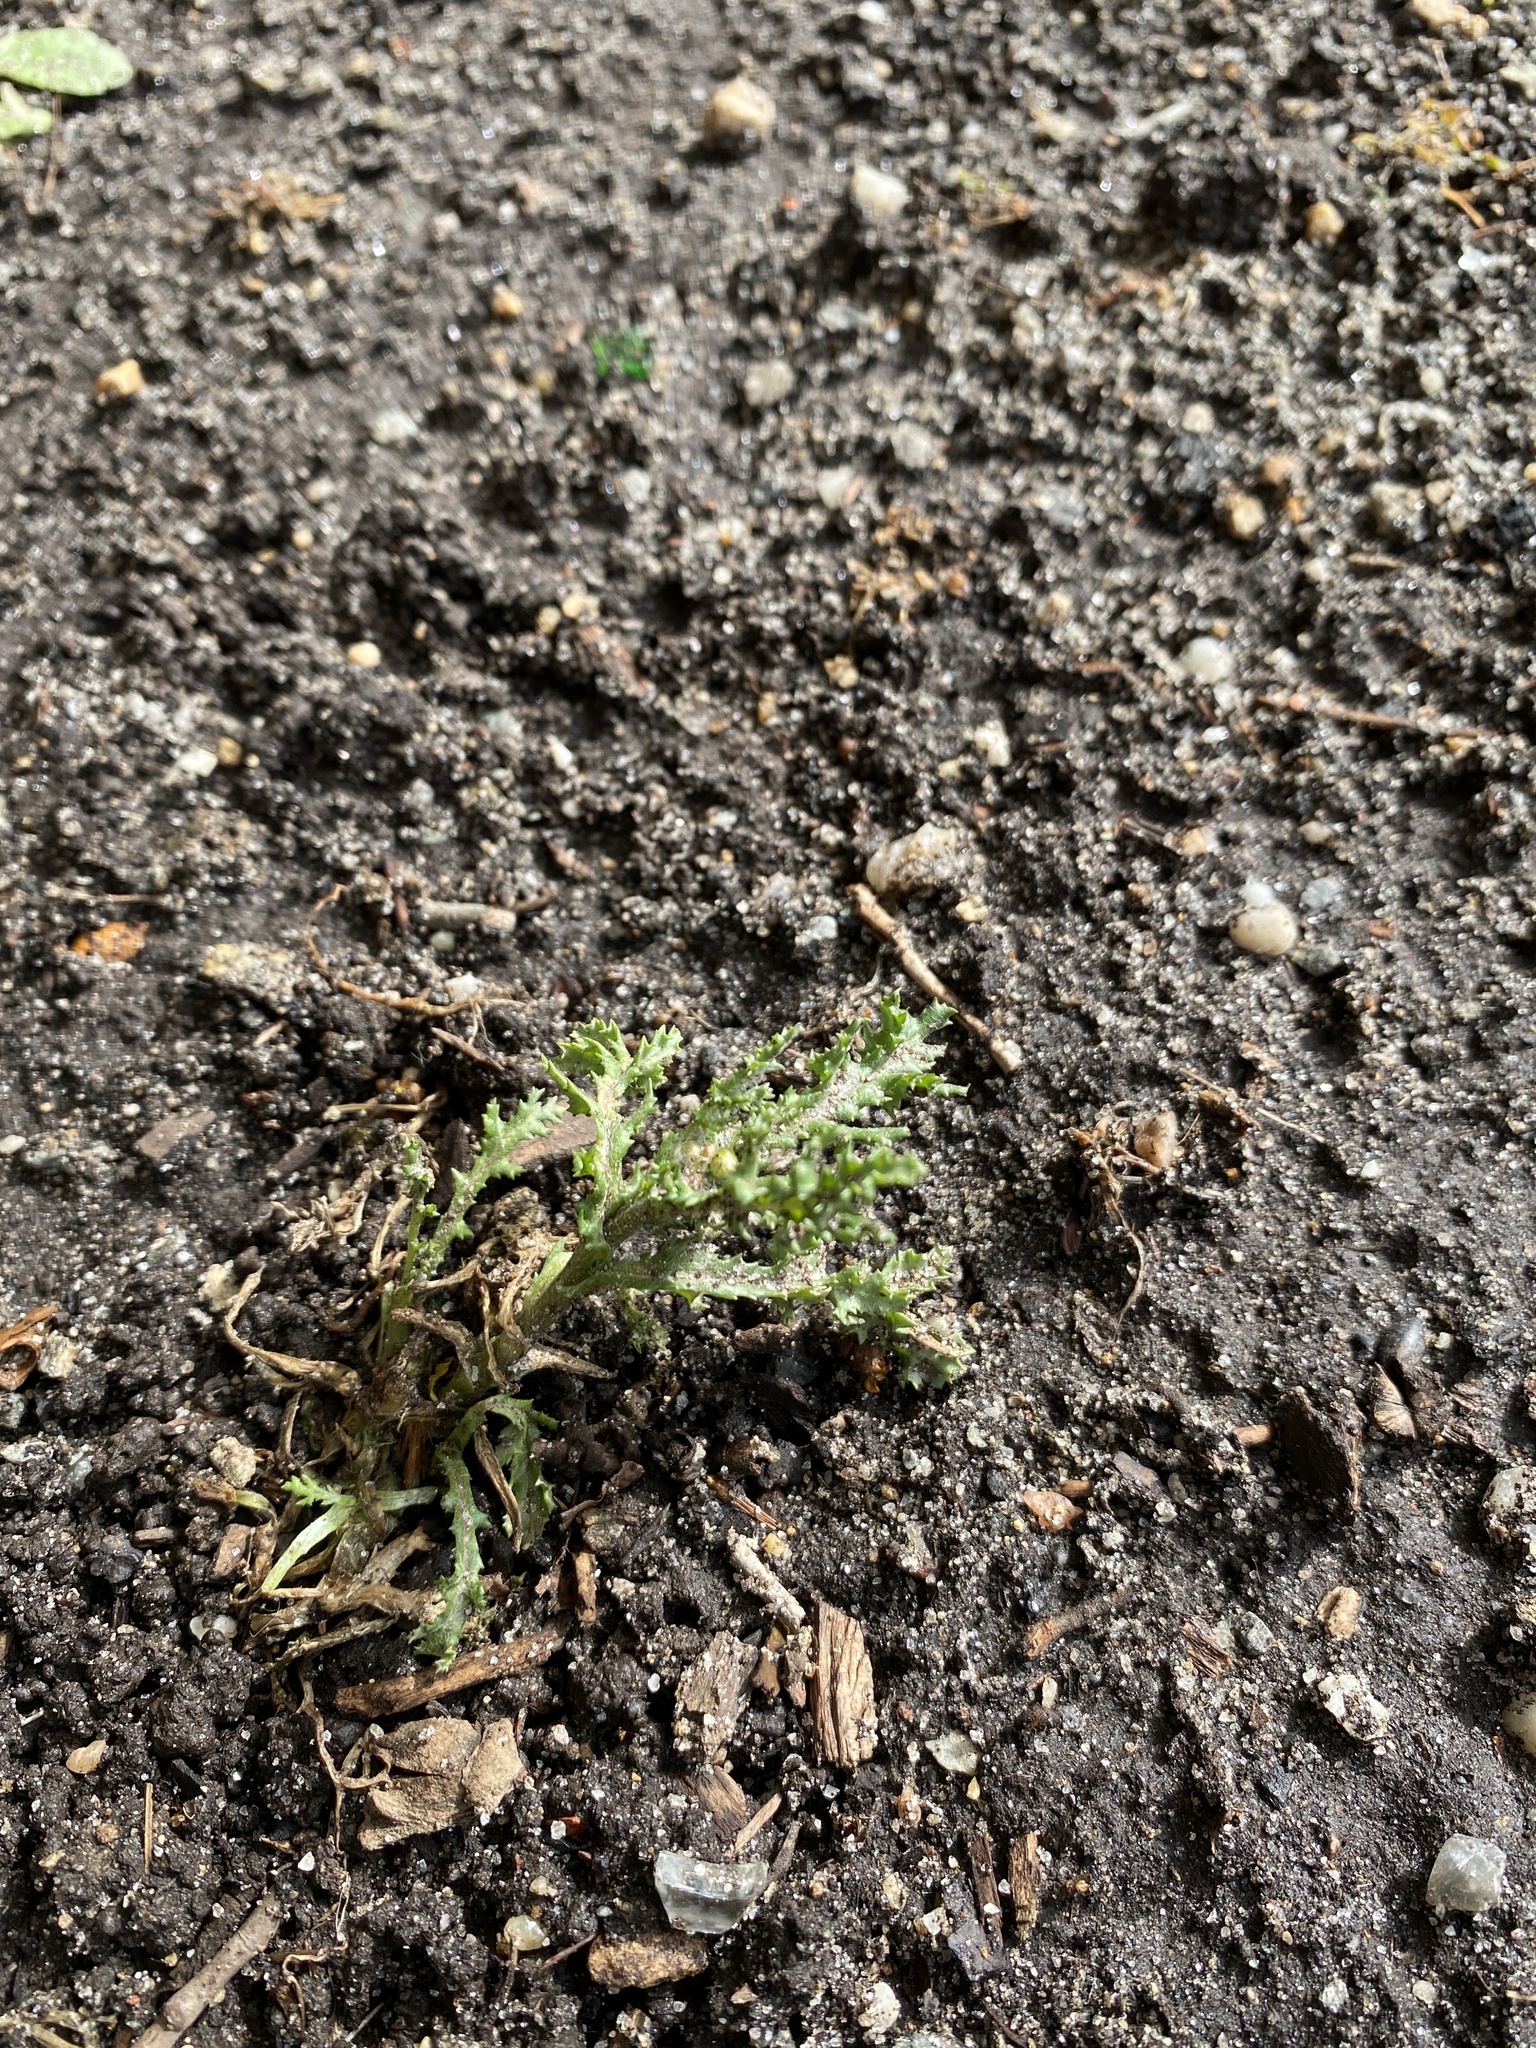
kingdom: Plantae
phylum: Tracheophyta
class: Magnoliopsida
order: Asterales
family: Asteraceae
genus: Senecio
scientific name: Senecio vulgaris
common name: Old-man-in-the-spring
